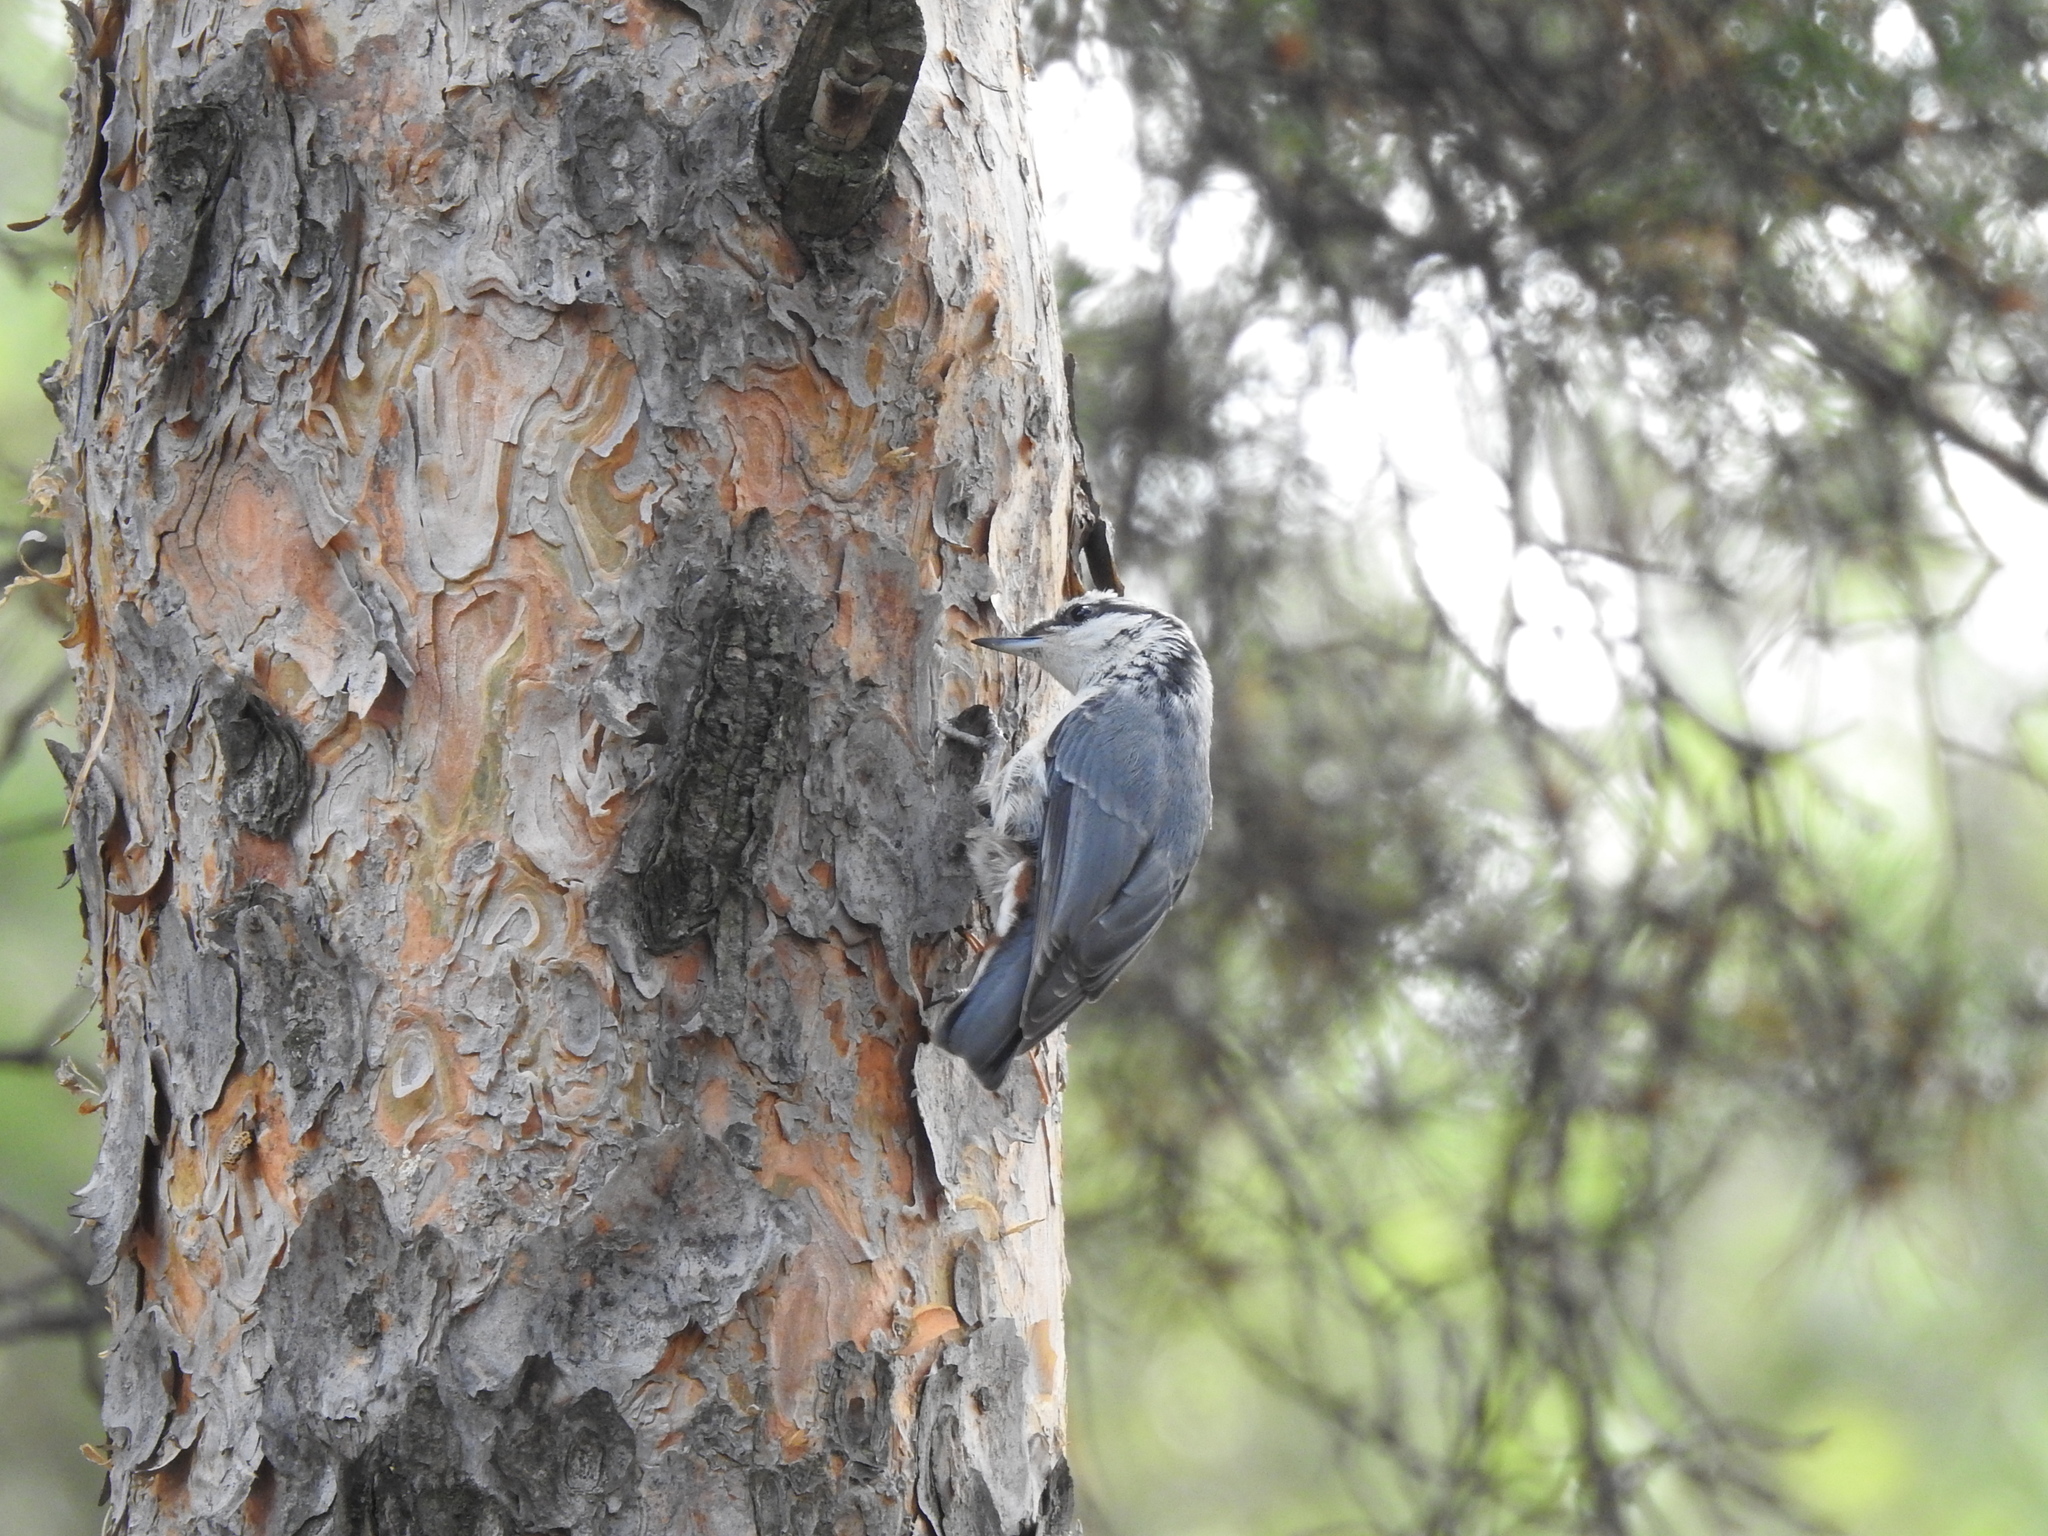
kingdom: Animalia
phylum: Chordata
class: Aves
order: Passeriformes
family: Sittidae
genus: Sitta
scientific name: Sitta europaea
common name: Eurasian nuthatch
